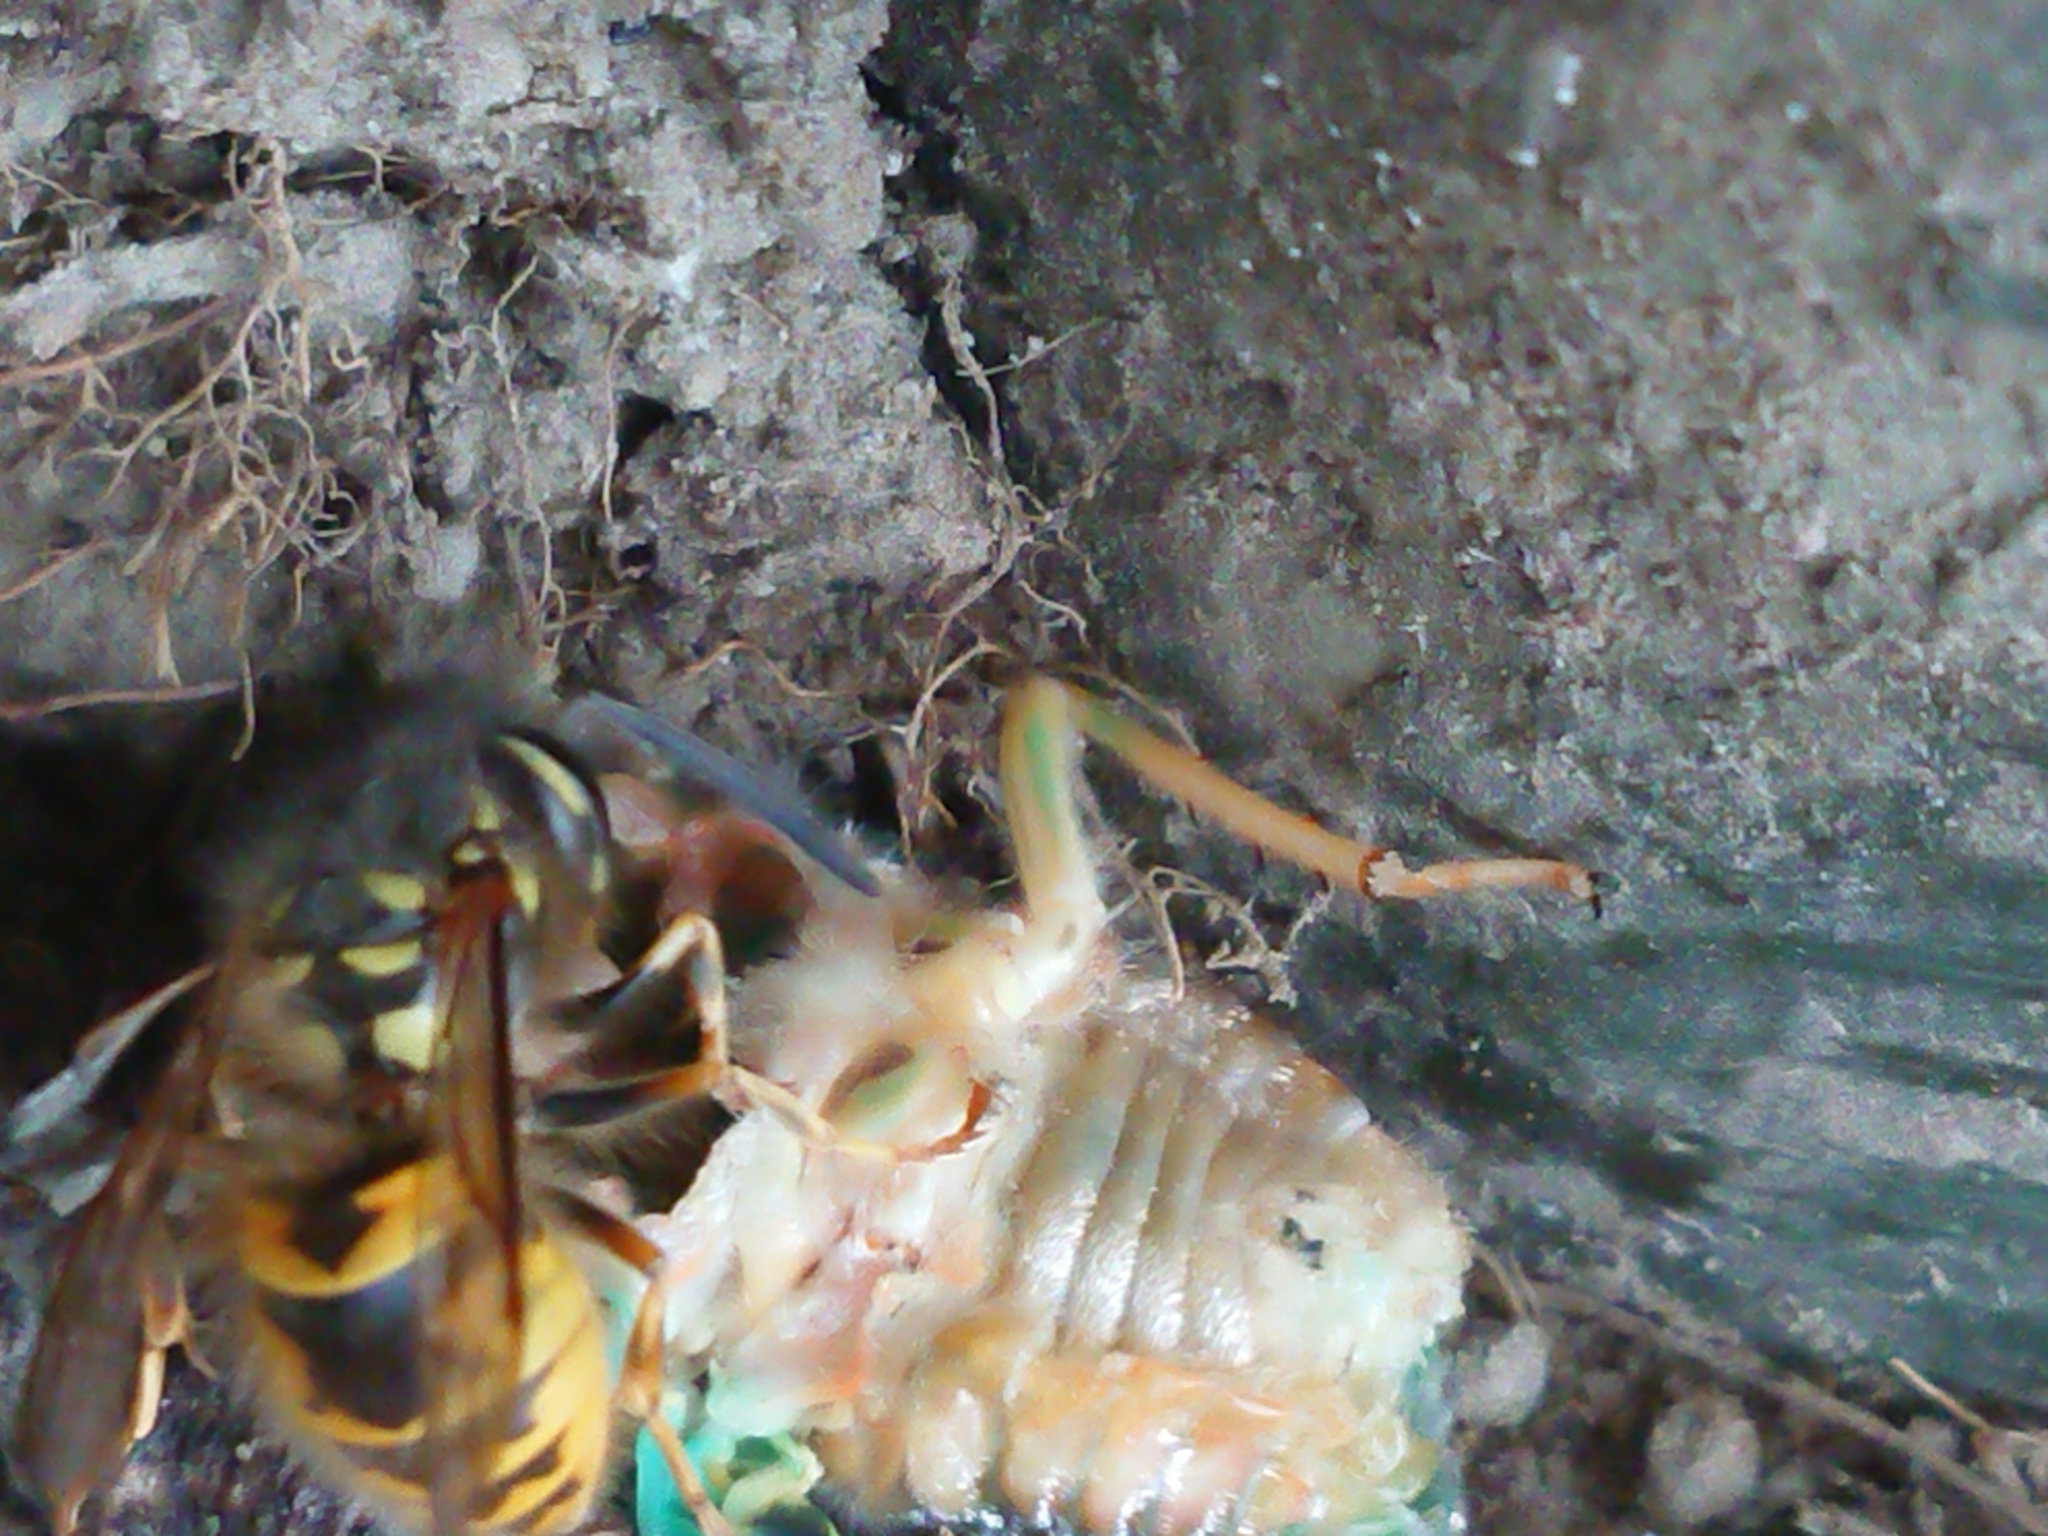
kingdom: Animalia
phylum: Arthropoda
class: Insecta
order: Hymenoptera
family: Vespidae
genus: Vespula
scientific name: Vespula vulgaris
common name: Common wasp
